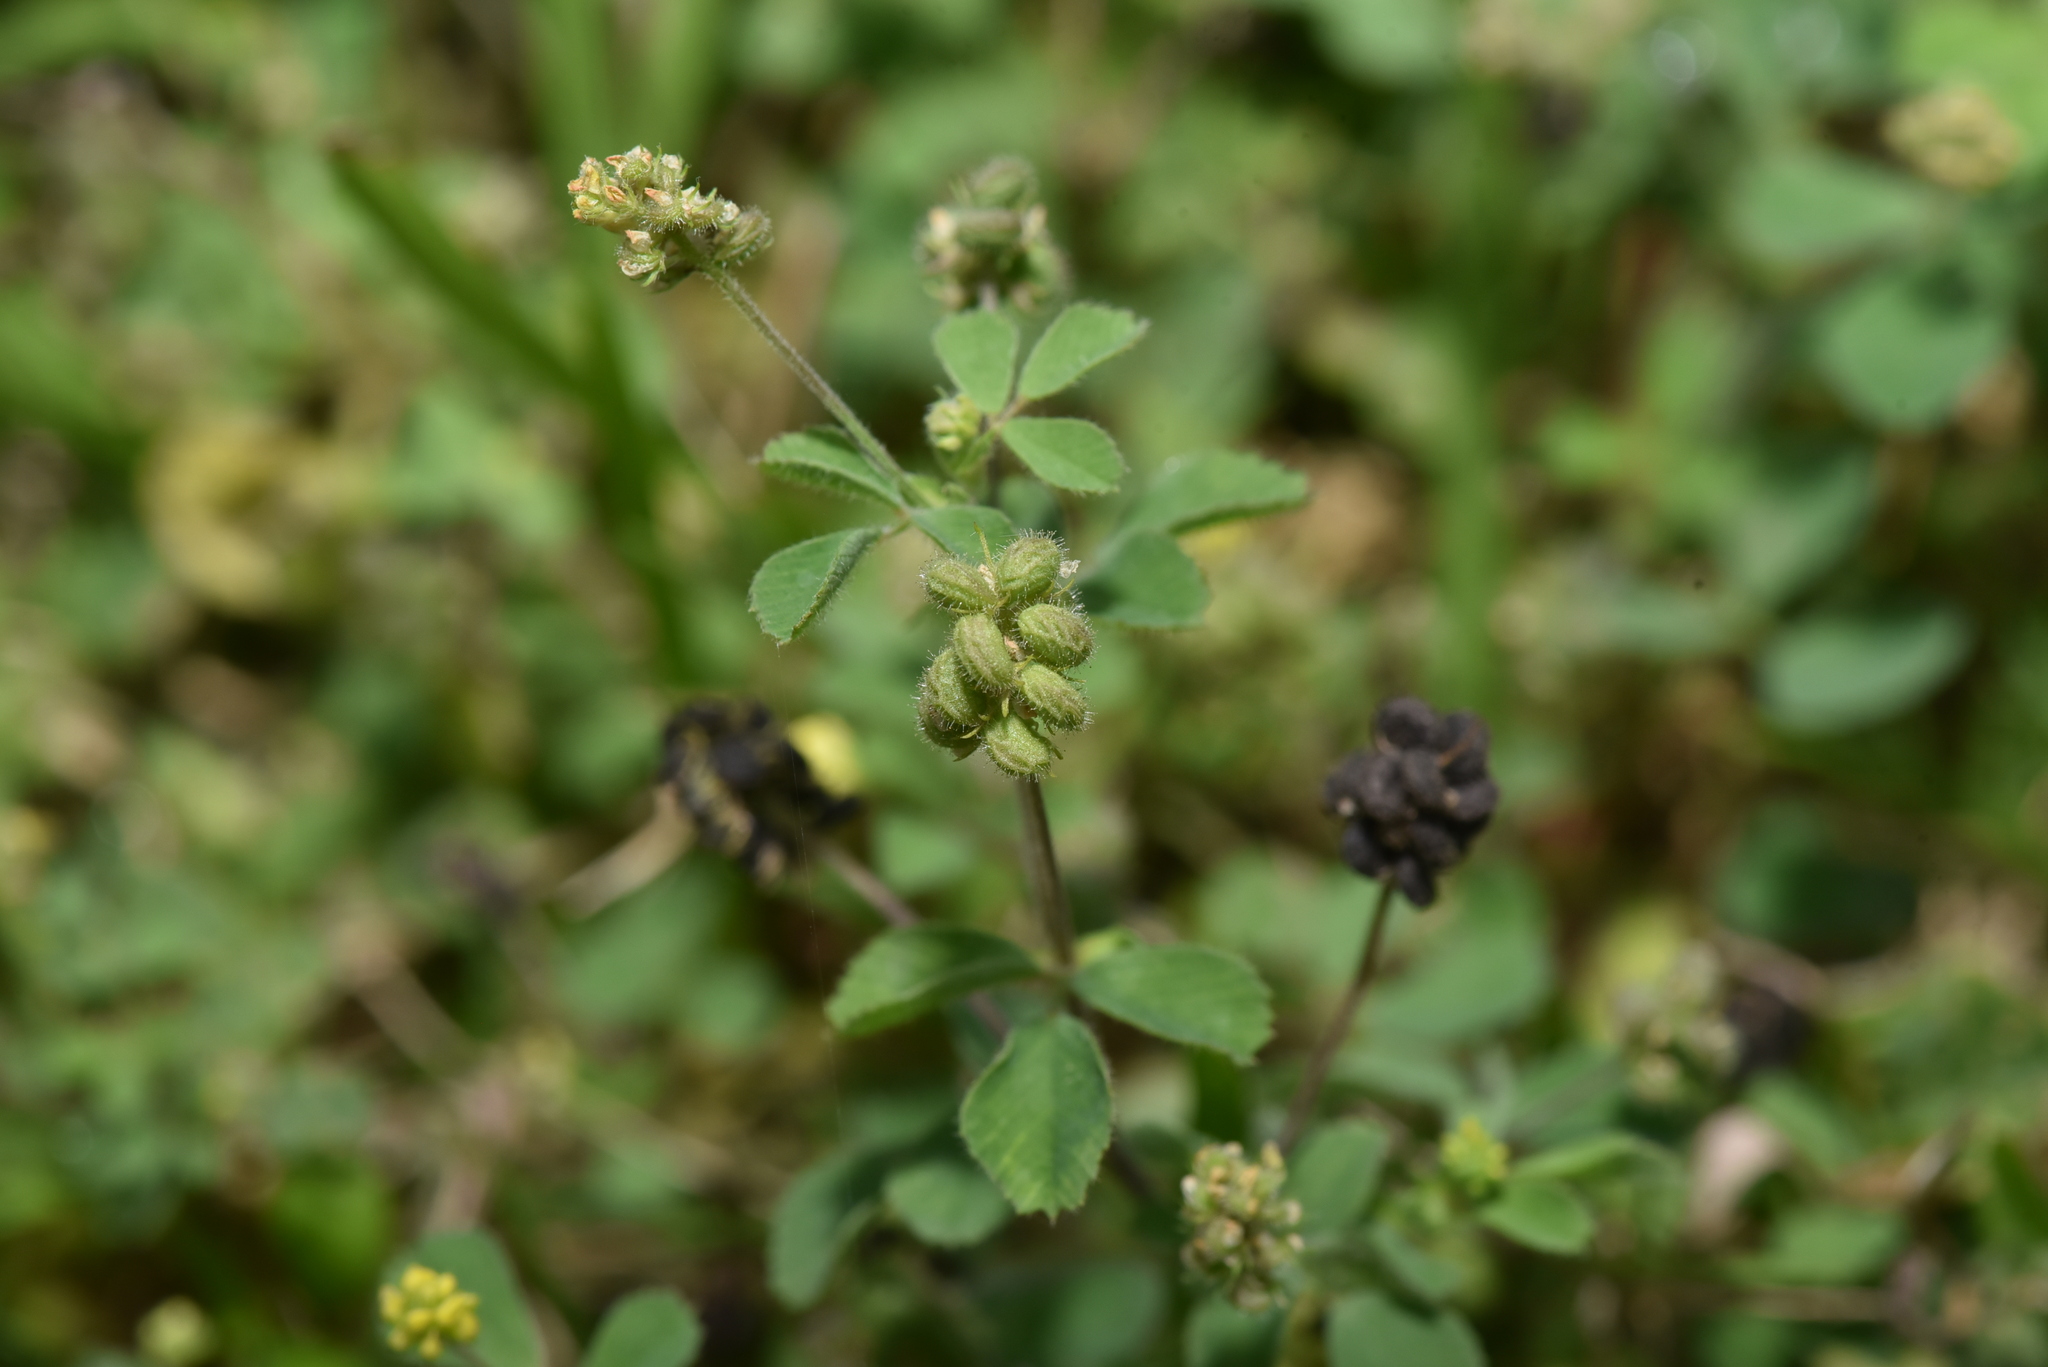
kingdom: Plantae
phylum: Tracheophyta
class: Magnoliopsida
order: Fabales
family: Fabaceae
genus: Medicago
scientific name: Medicago lupulina
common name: Black medick
